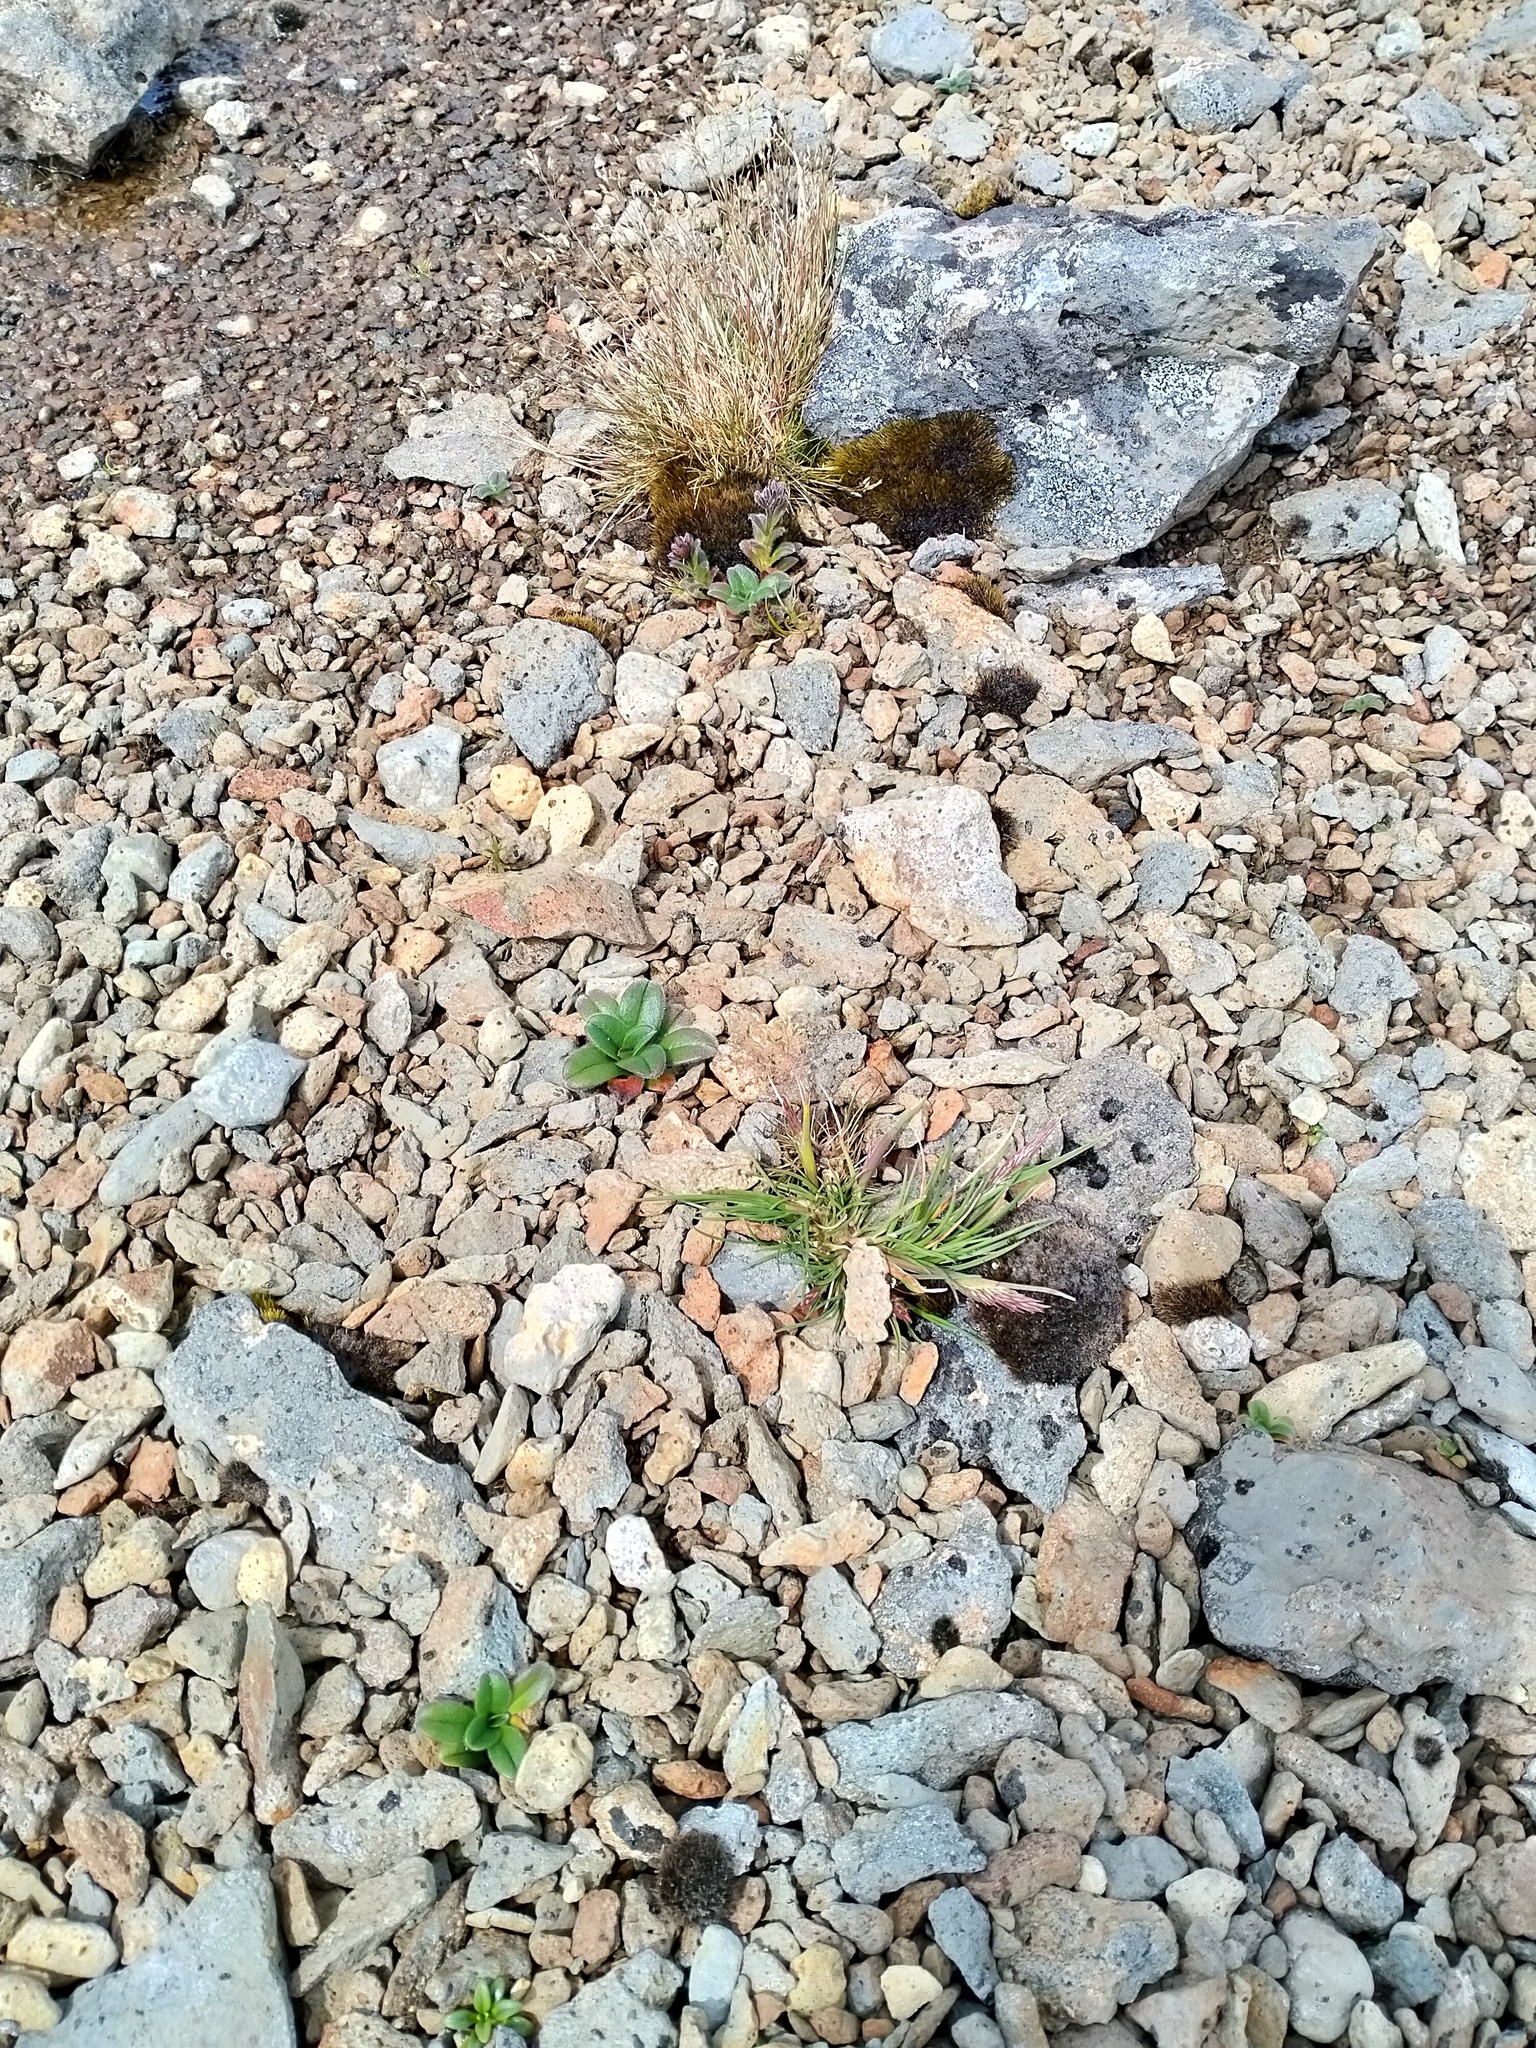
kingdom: Plantae
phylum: Tracheophyta
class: Magnoliopsida
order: Boraginales
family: Boraginaceae
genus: Myosotis
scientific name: Myosotis capitata
